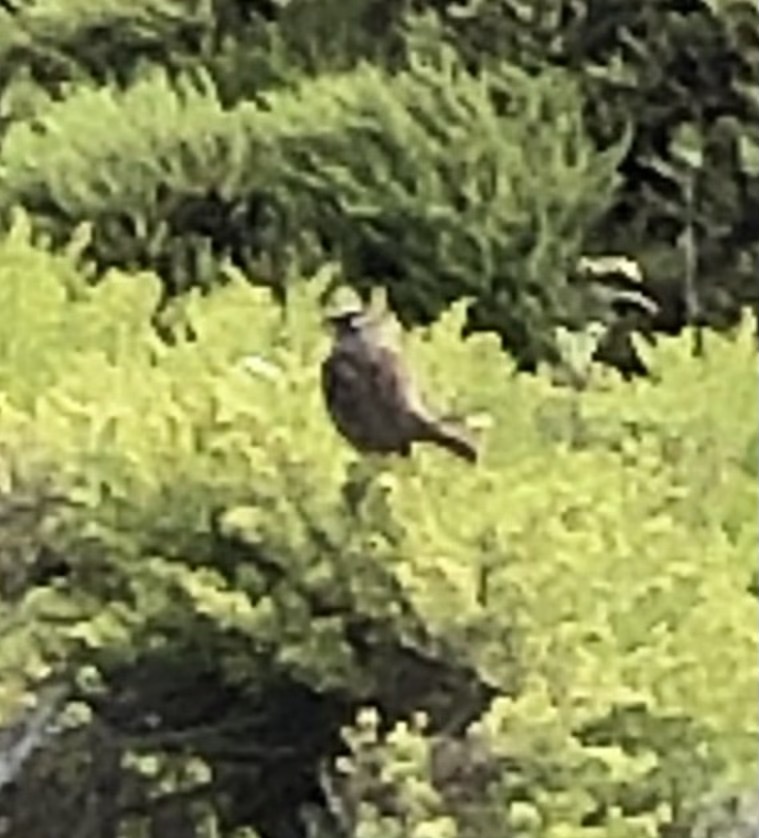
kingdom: Animalia
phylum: Chordata
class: Aves
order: Passeriformes
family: Passerellidae
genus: Zonotrichia
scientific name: Zonotrichia leucophrys
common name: White-crowned sparrow
